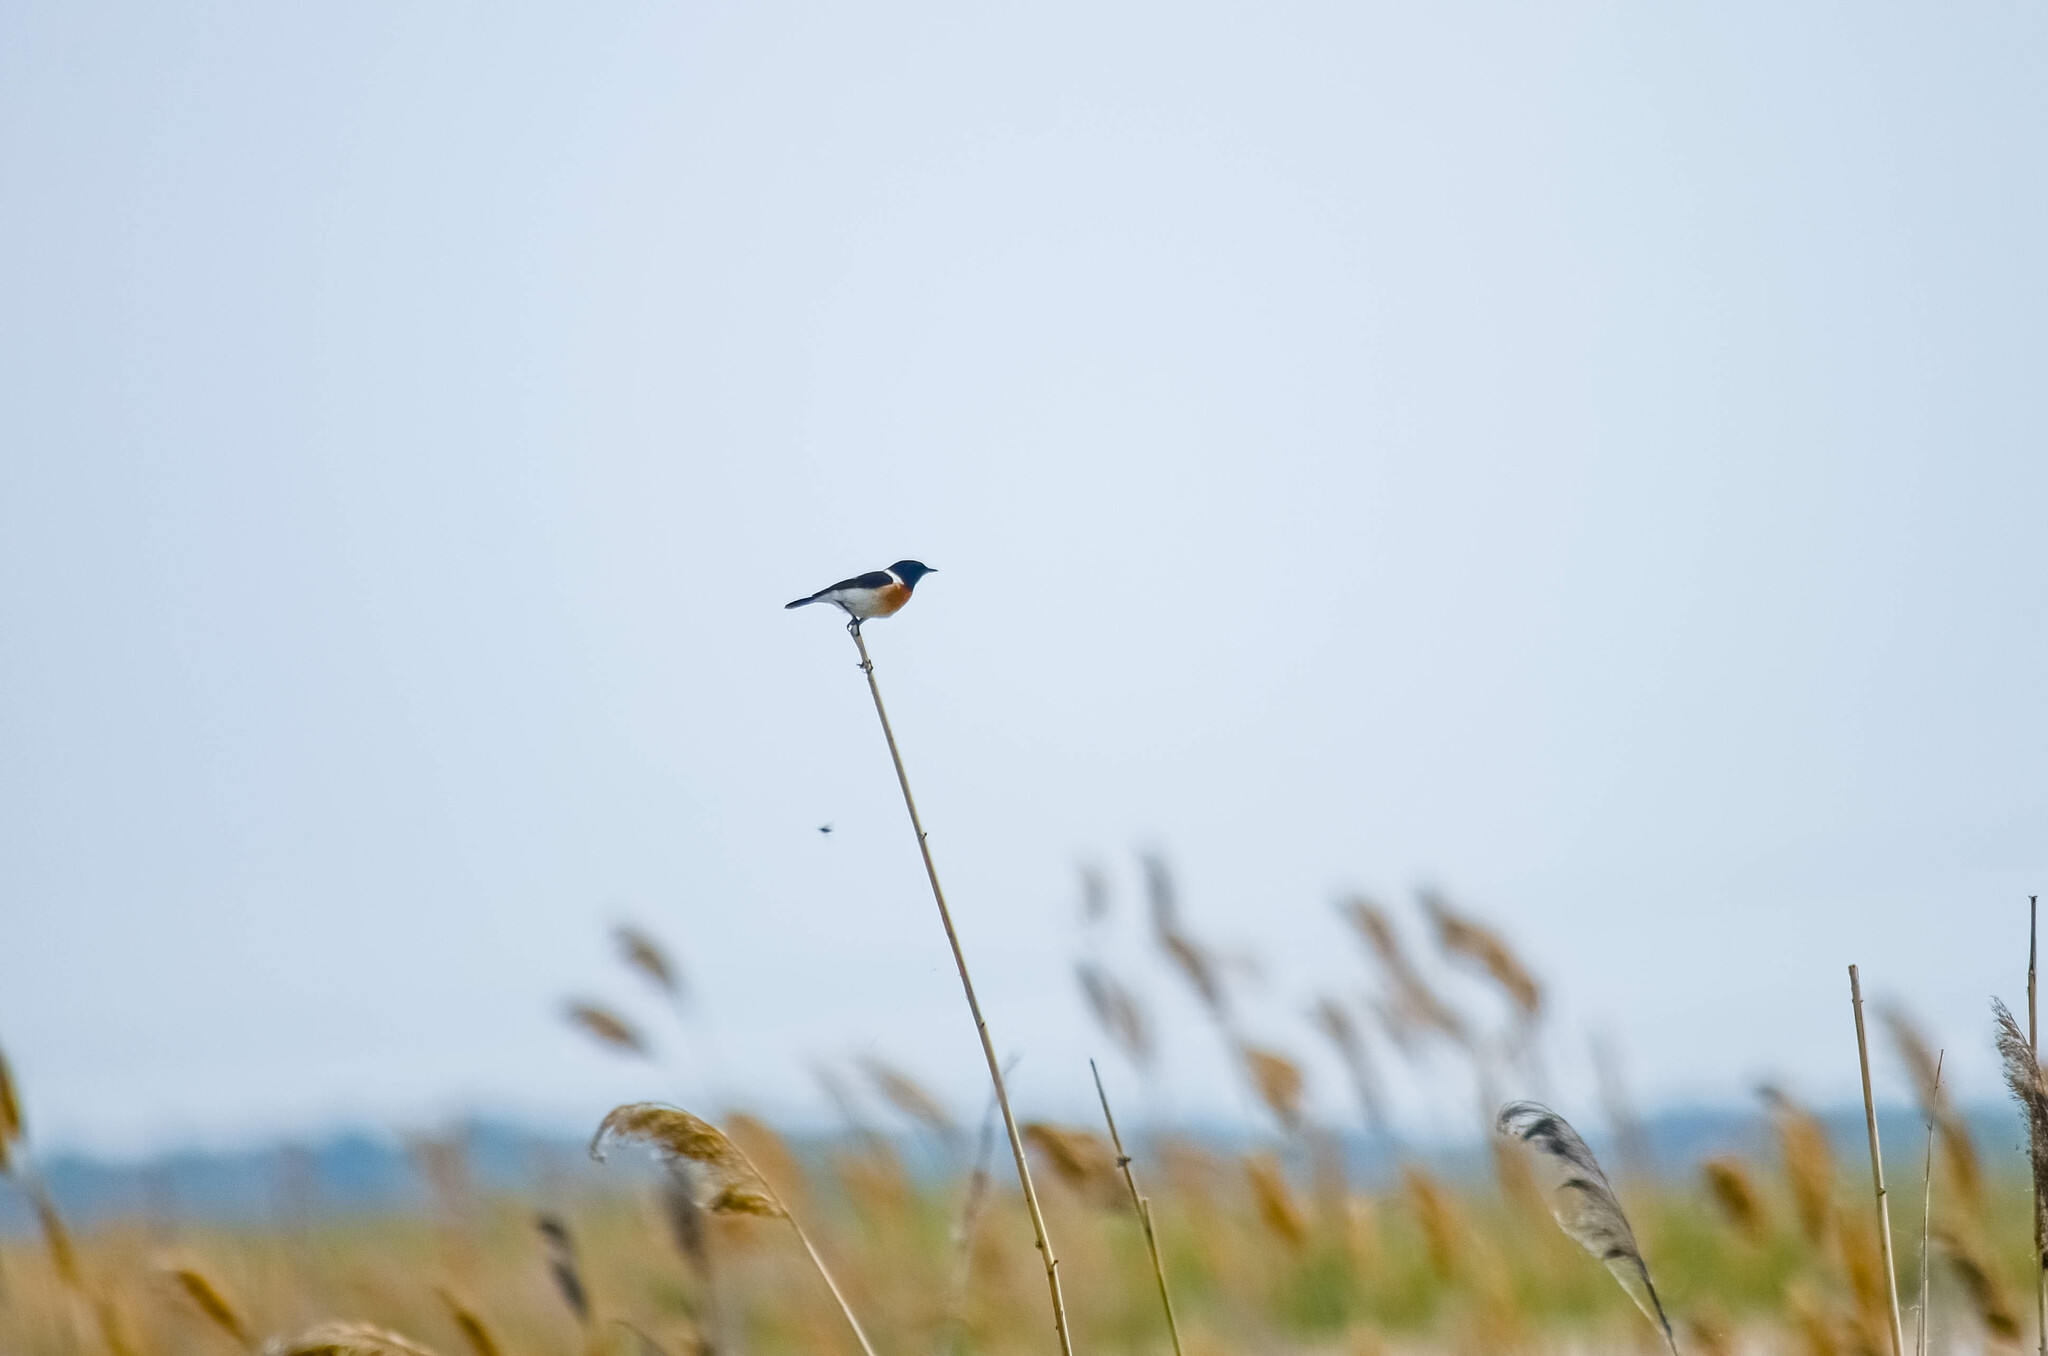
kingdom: Animalia
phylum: Chordata
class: Aves
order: Passeriformes
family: Muscicapidae
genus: Saxicola
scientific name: Saxicola maurus
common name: Siberian stonechat
